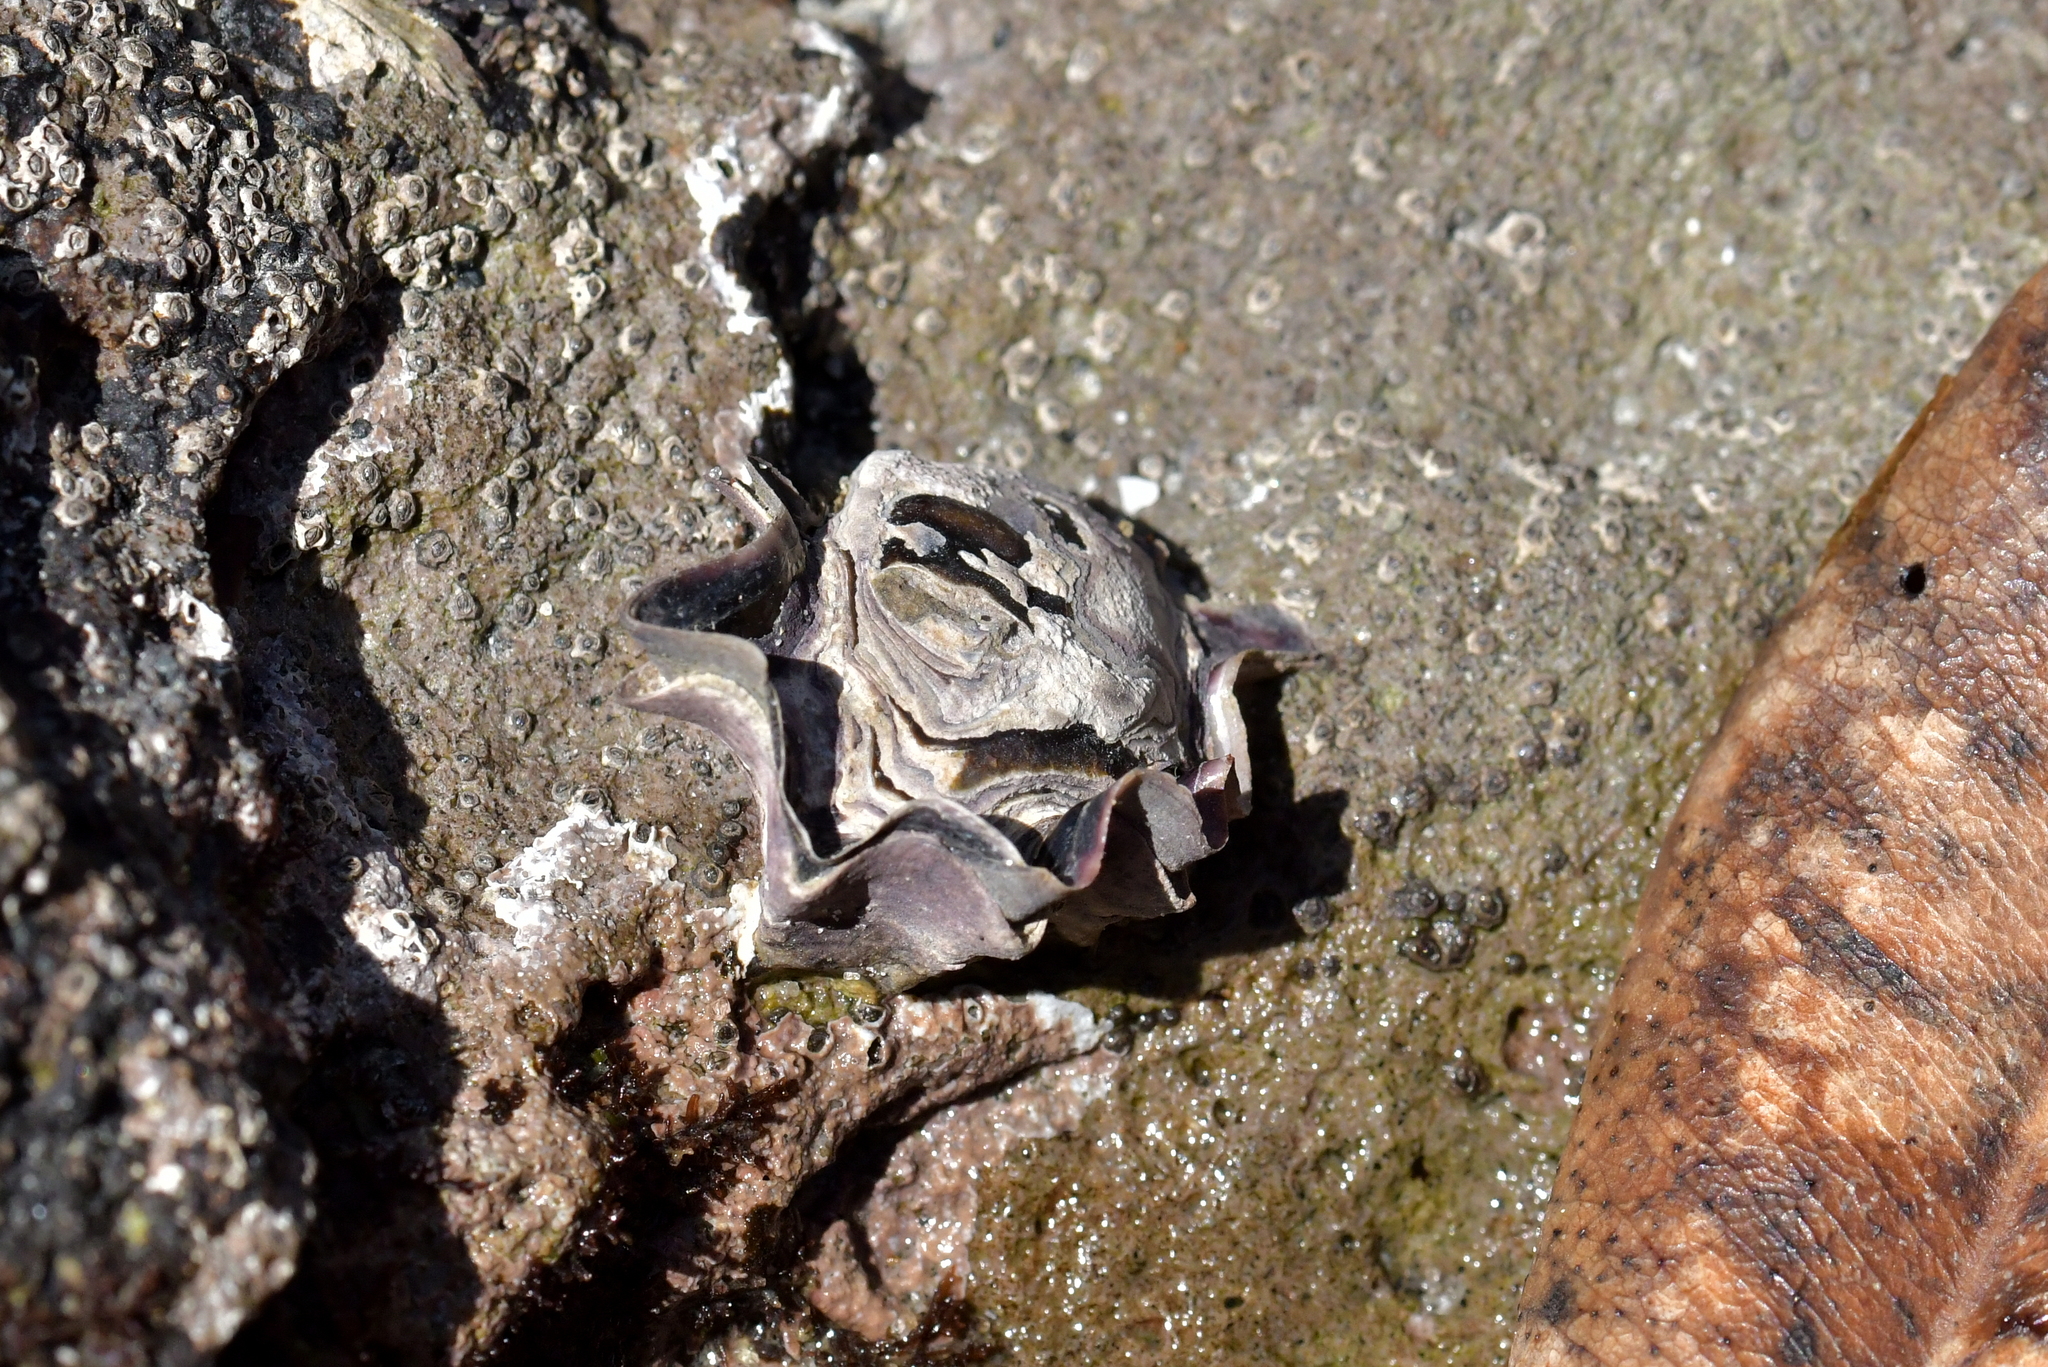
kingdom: Animalia
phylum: Mollusca
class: Bivalvia
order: Ostreida
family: Ostreidae
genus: Saccostrea
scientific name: Saccostrea glomerata
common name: Sydney cupped oyster
